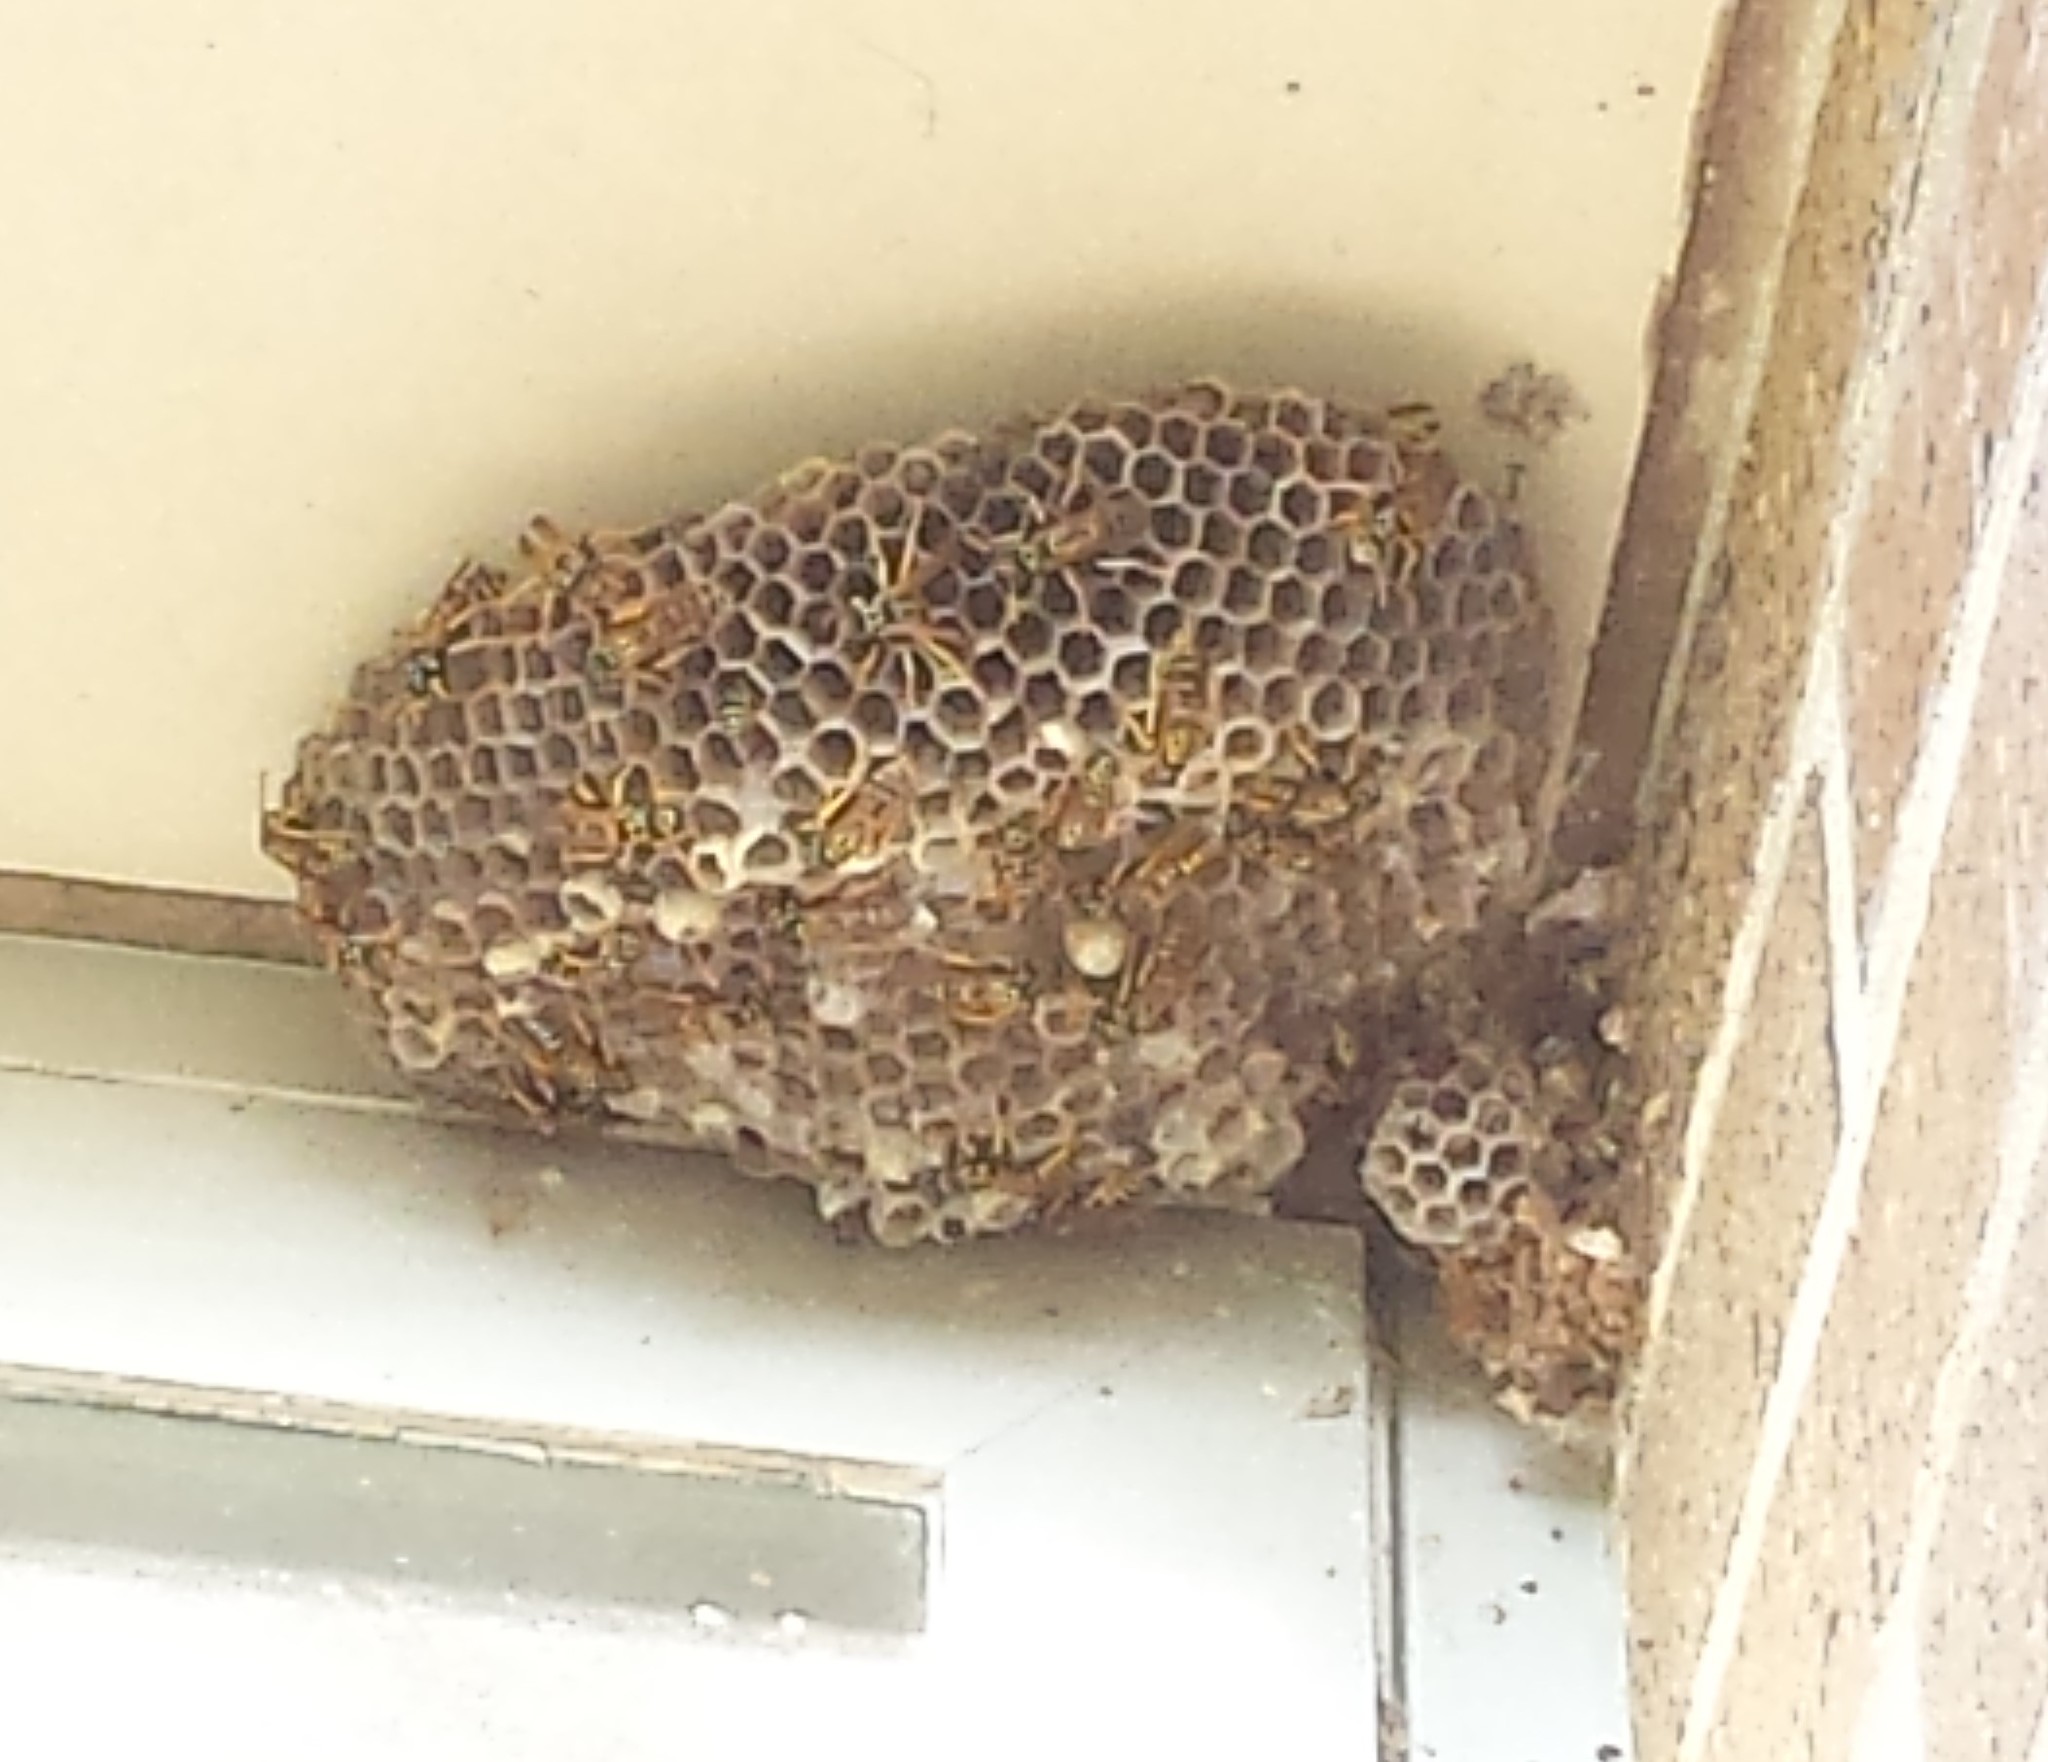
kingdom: Animalia
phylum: Arthropoda
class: Insecta
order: Hymenoptera
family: Eumenidae
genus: Polistes
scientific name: Polistes dominula
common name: Paper wasp
